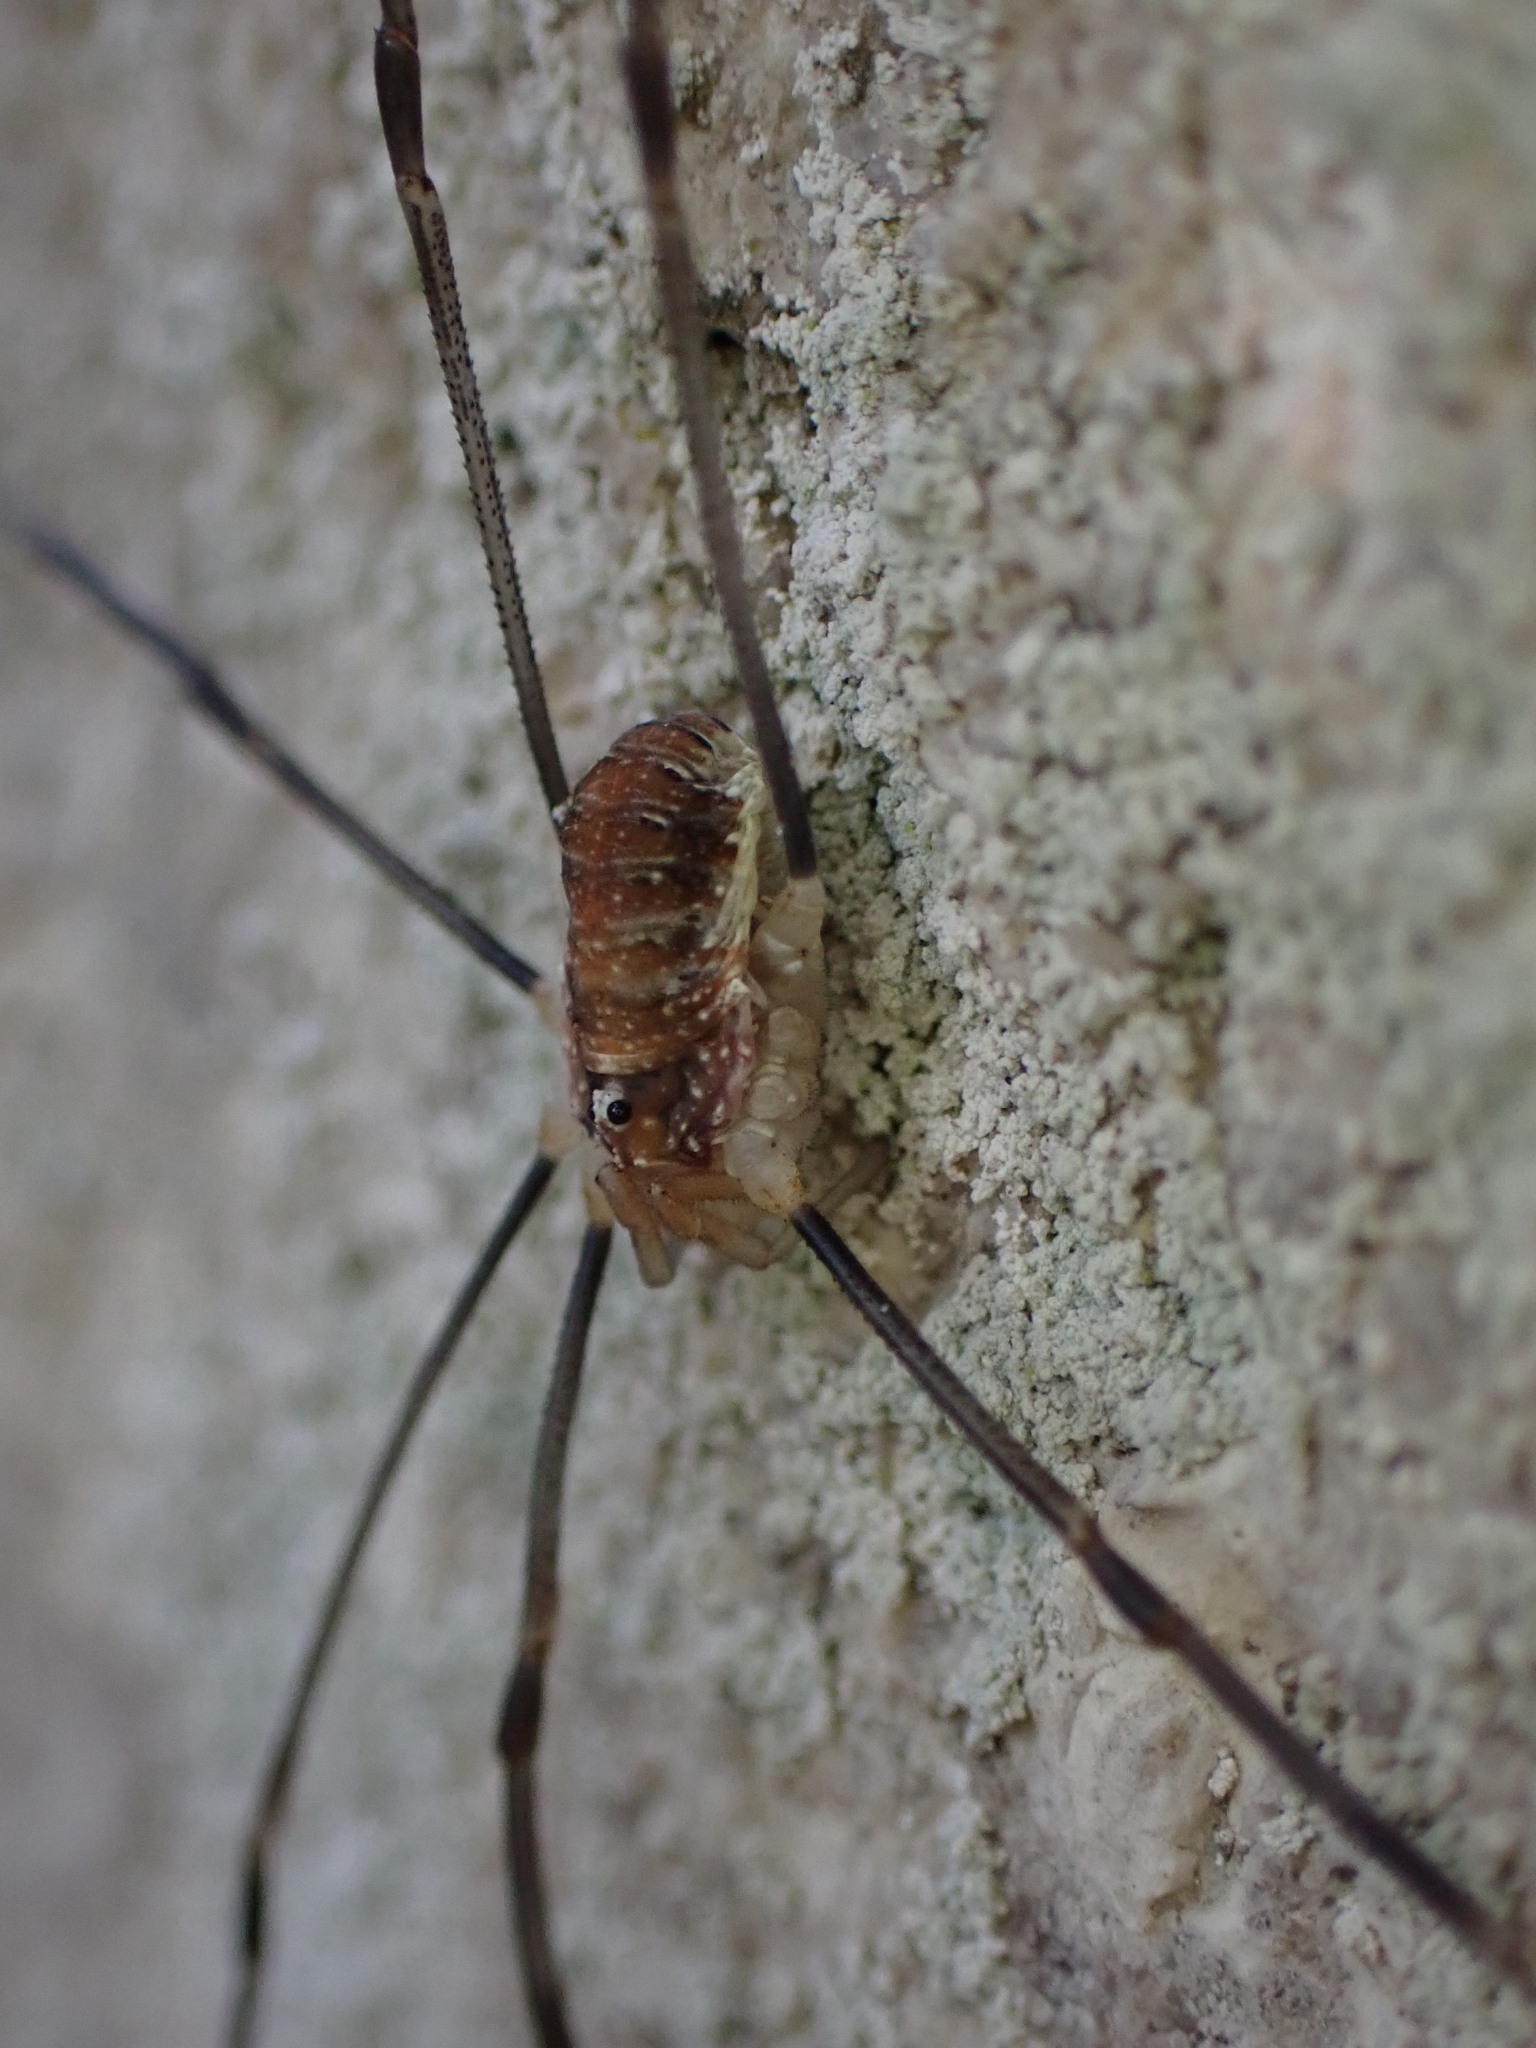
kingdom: Animalia
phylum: Arthropoda
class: Arachnida
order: Opiliones
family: Phalangiidae
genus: Opilio
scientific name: Opilio canestrinii
